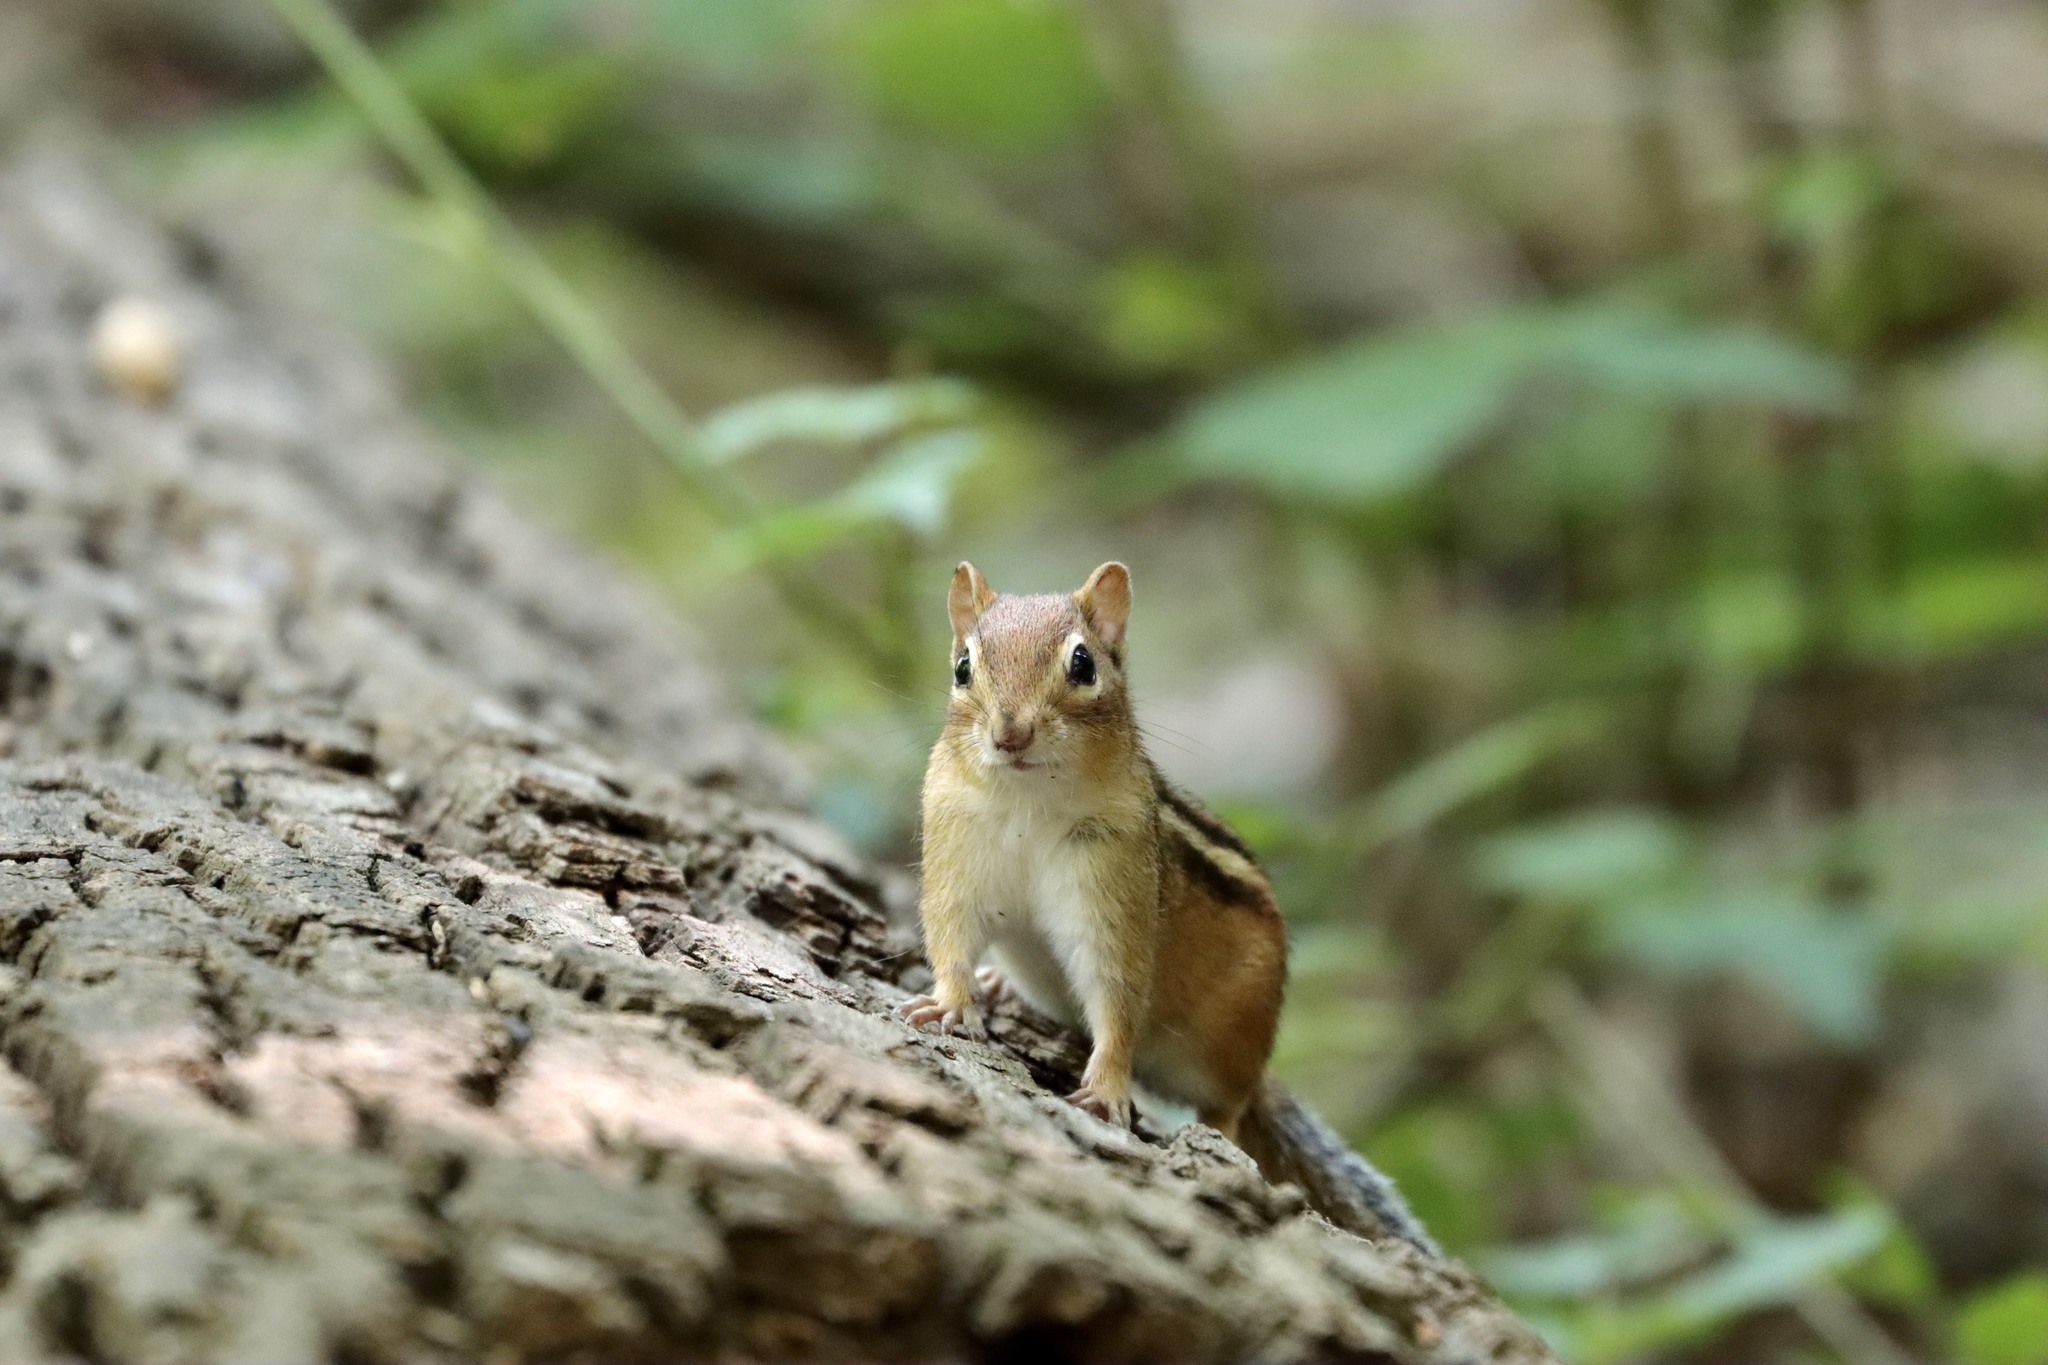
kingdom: Animalia
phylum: Chordata
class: Mammalia
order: Rodentia
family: Sciuridae
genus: Tamias
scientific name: Tamias striatus
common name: Eastern chipmunk
